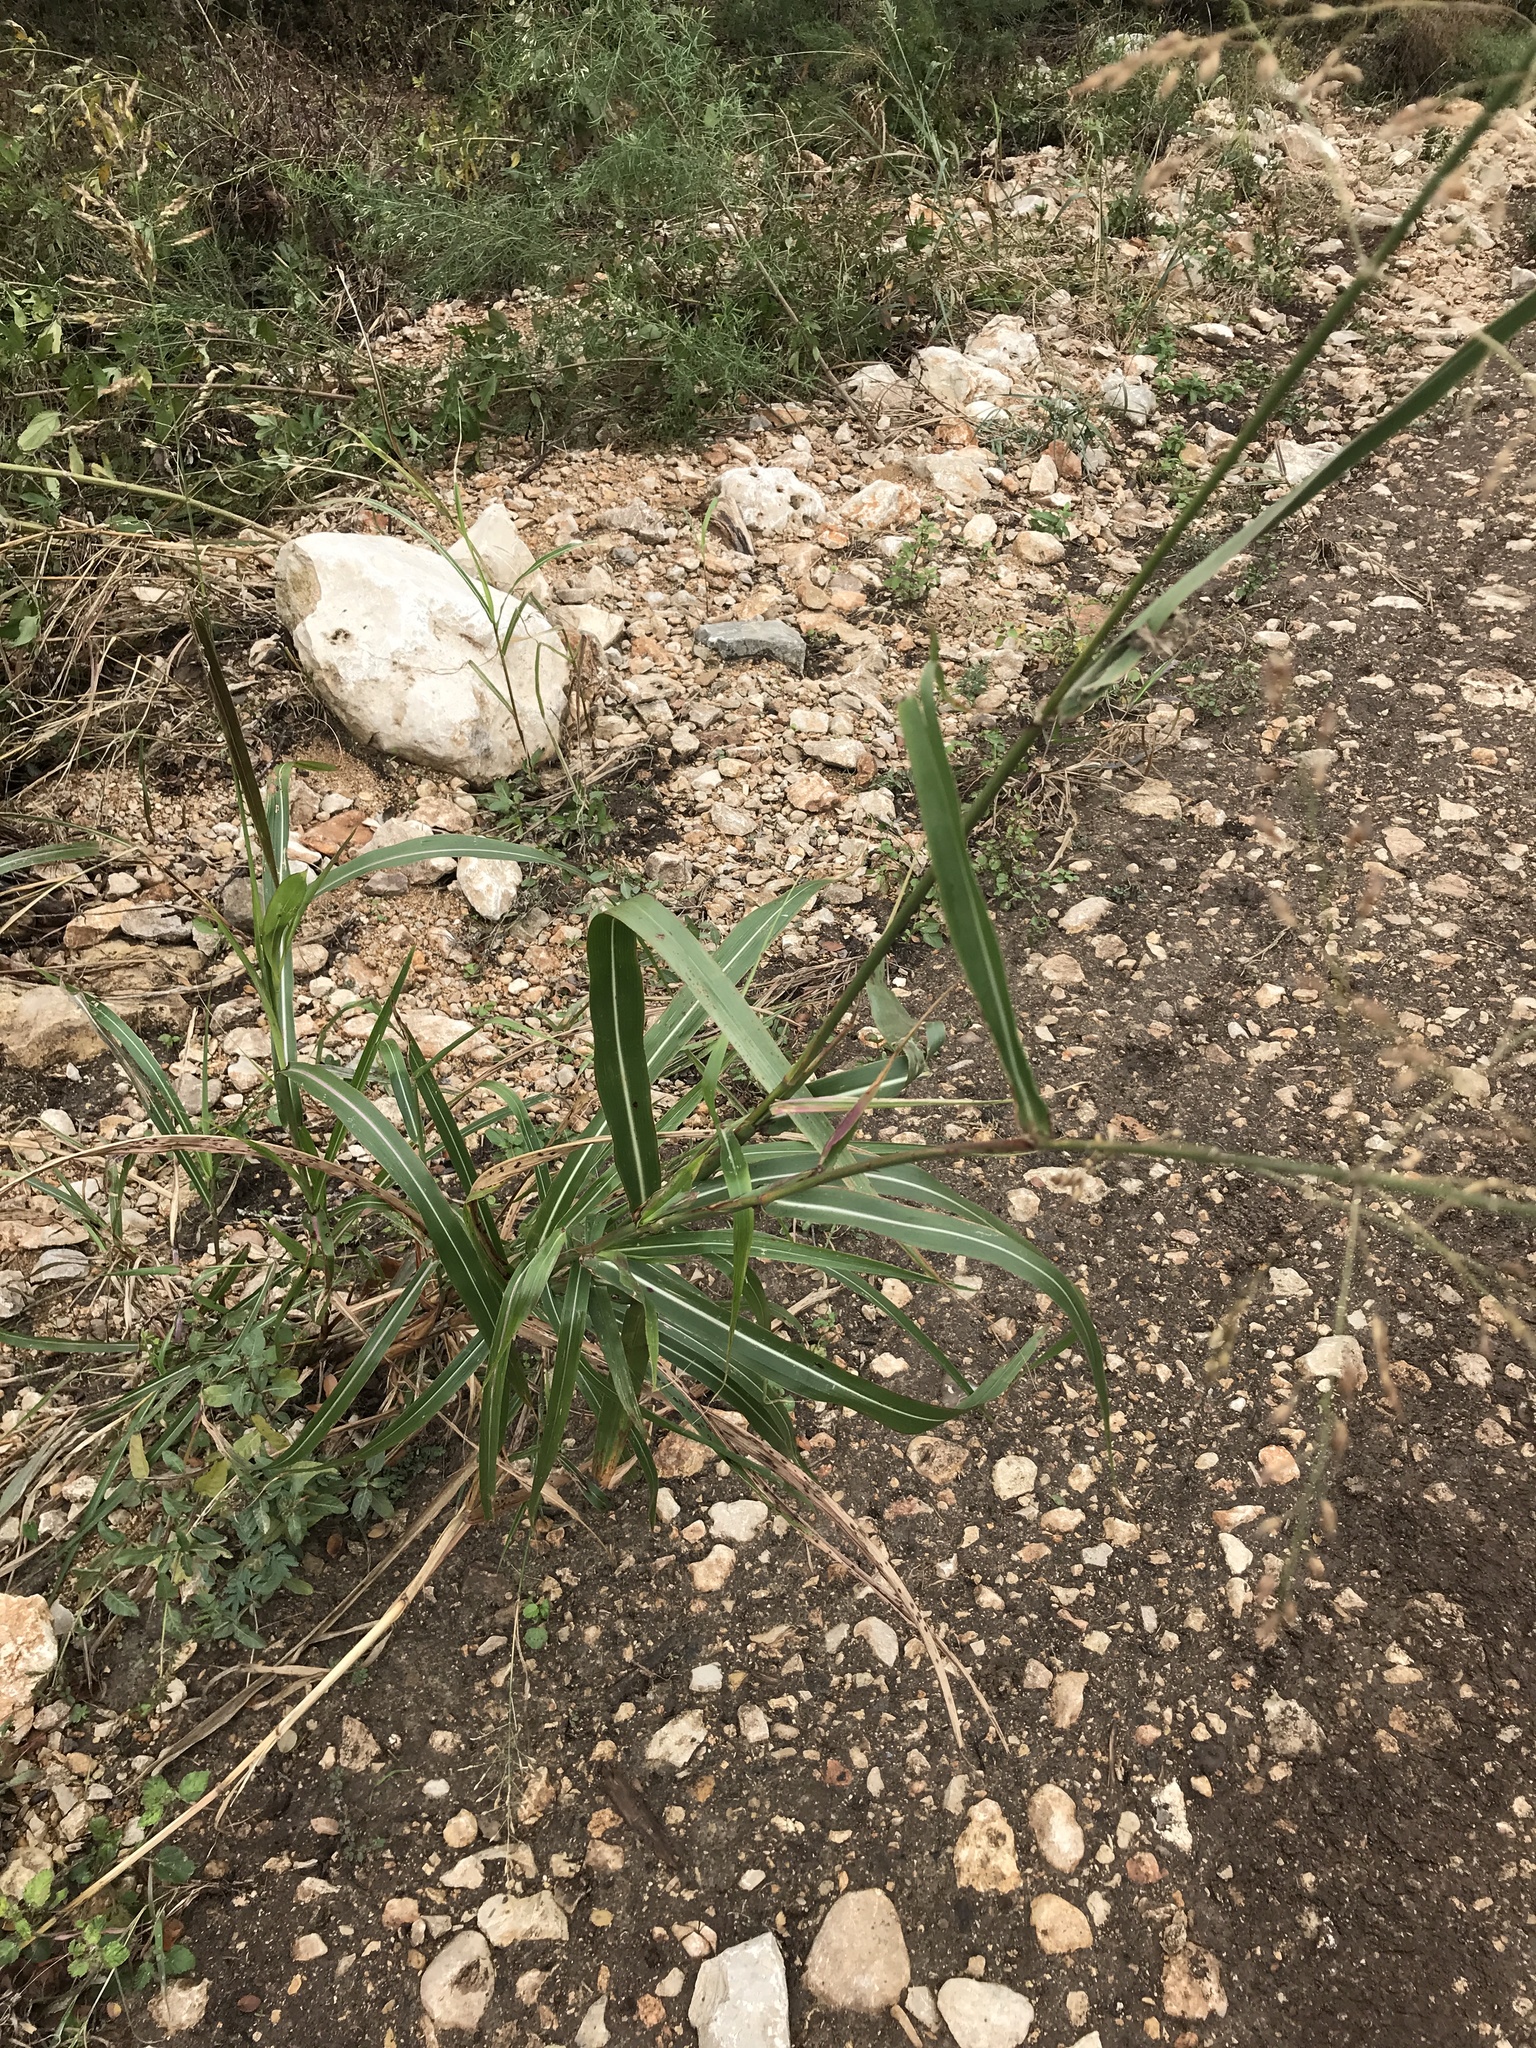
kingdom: Plantae
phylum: Tracheophyta
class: Liliopsida
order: Poales
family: Poaceae
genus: Sorghum
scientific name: Sorghum halepense
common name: Johnson-grass
